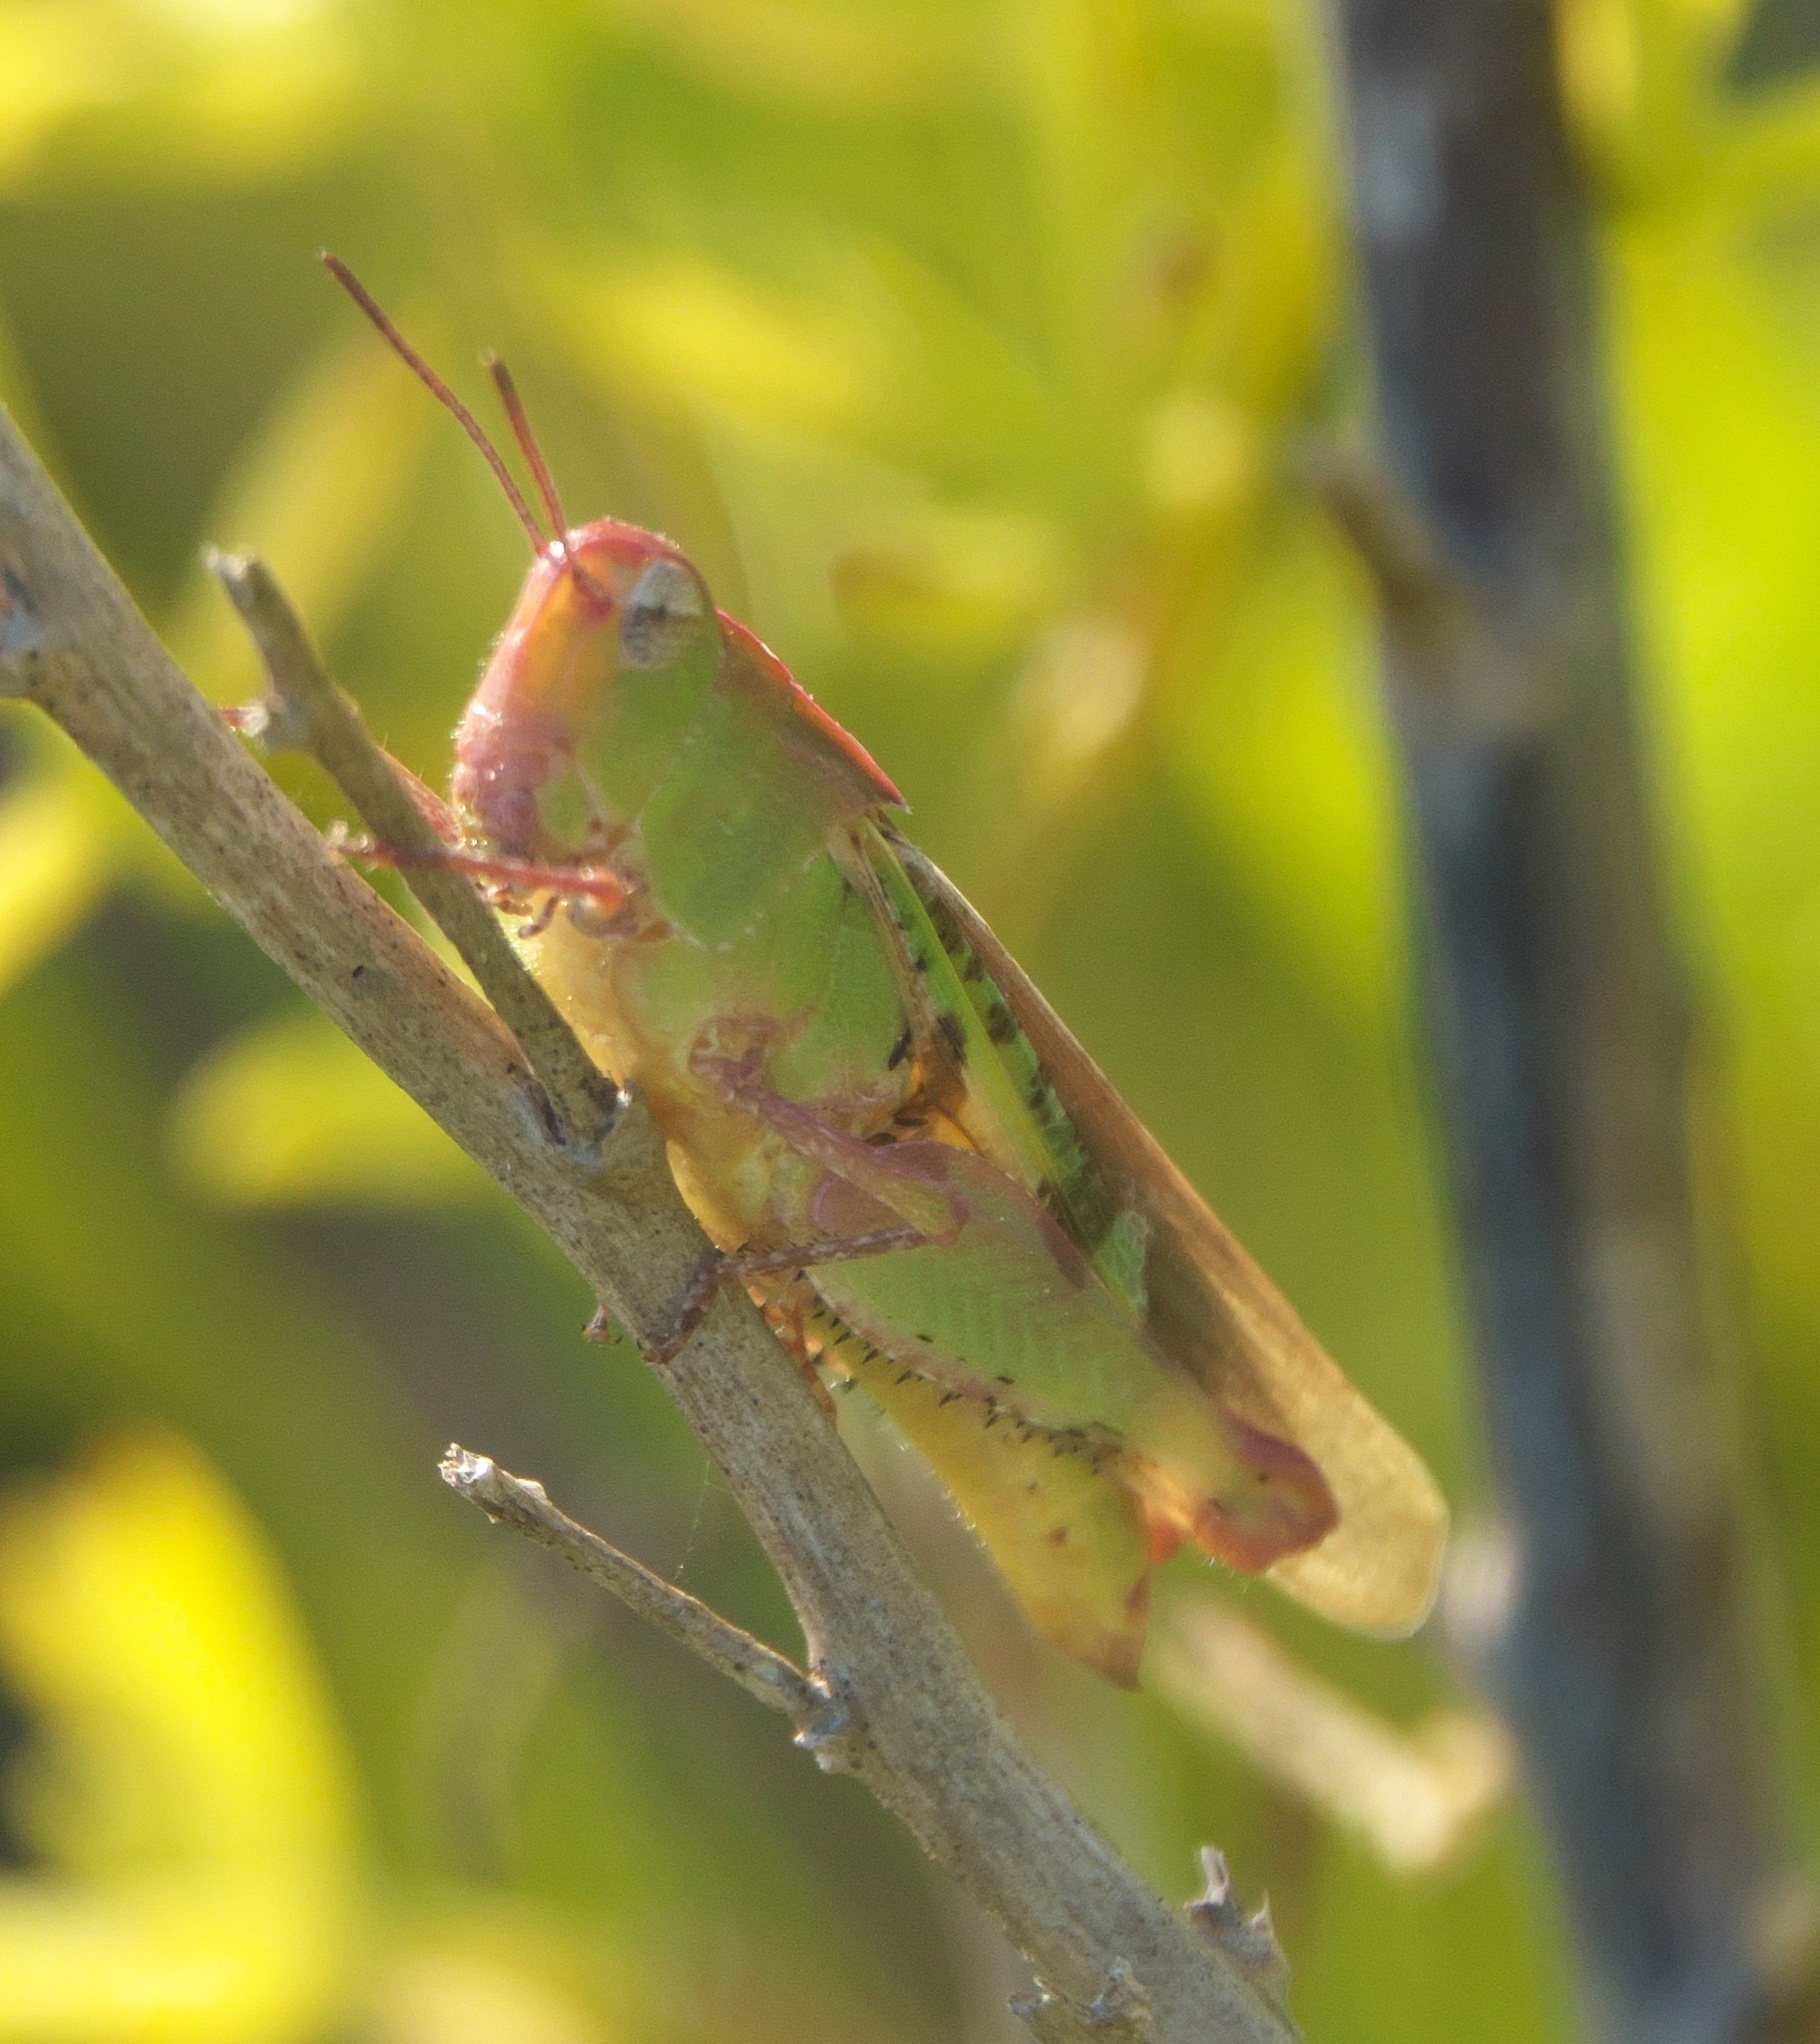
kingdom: Animalia
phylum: Arthropoda
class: Insecta
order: Orthoptera
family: Acrididae
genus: Chortophaga
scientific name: Chortophaga australior
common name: Southern green-striped grasshopper
